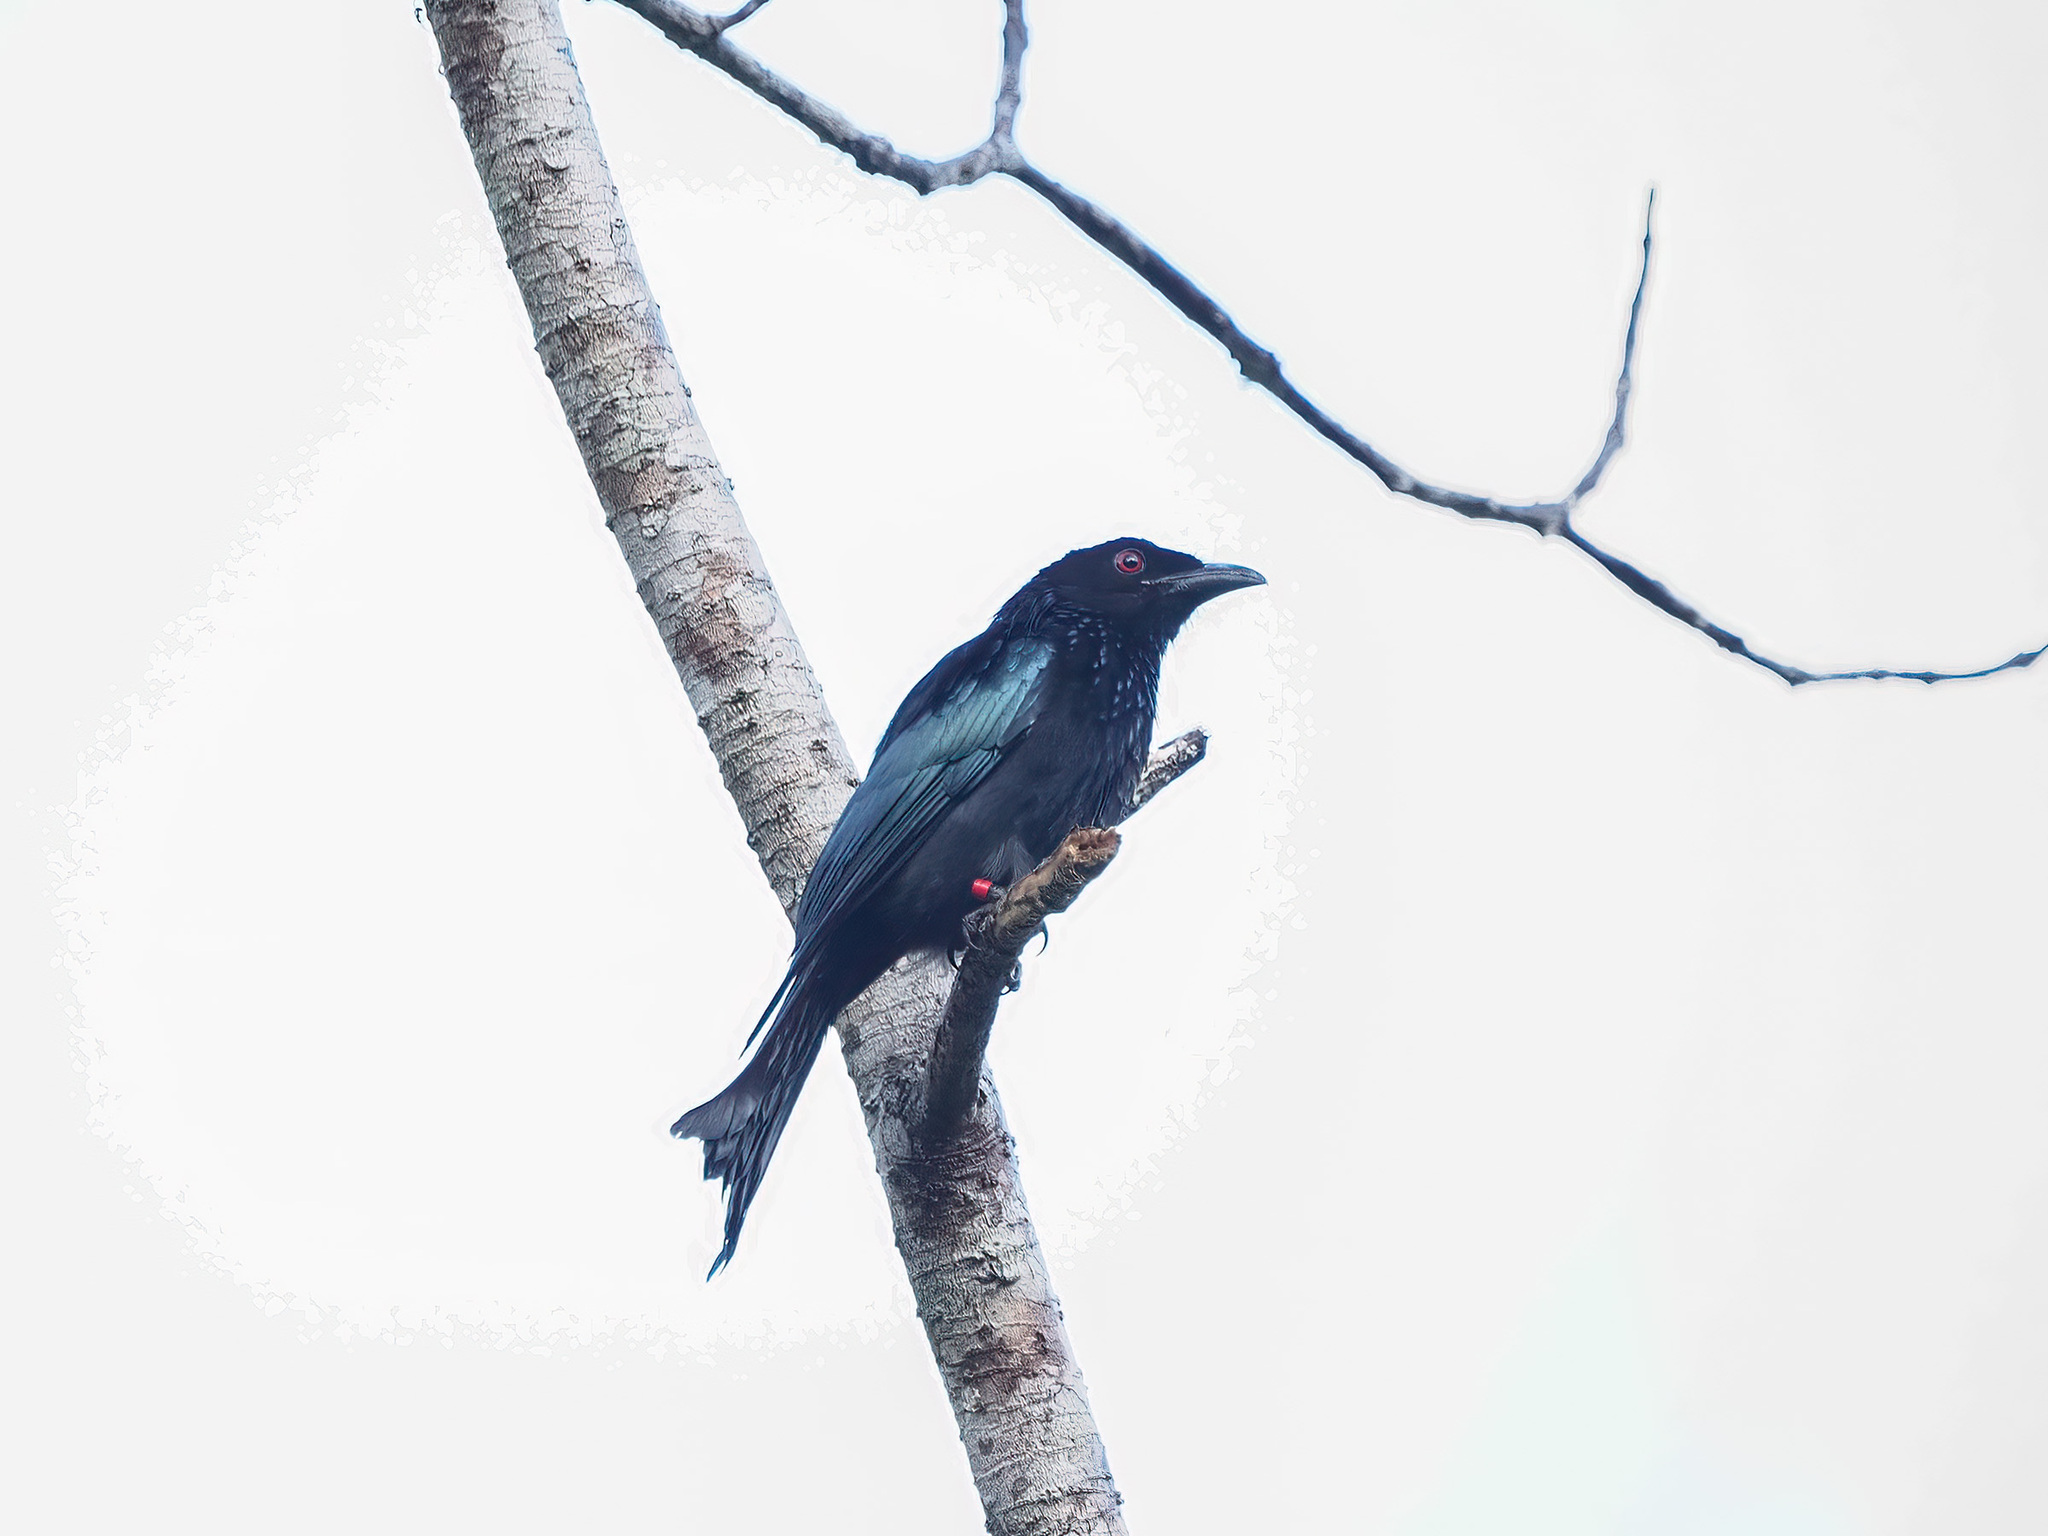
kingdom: Animalia
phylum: Chordata
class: Aves
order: Passeriformes
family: Dicruridae
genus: Dicrurus
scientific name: Dicrurus hottentottus
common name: Hair-crested drongo
